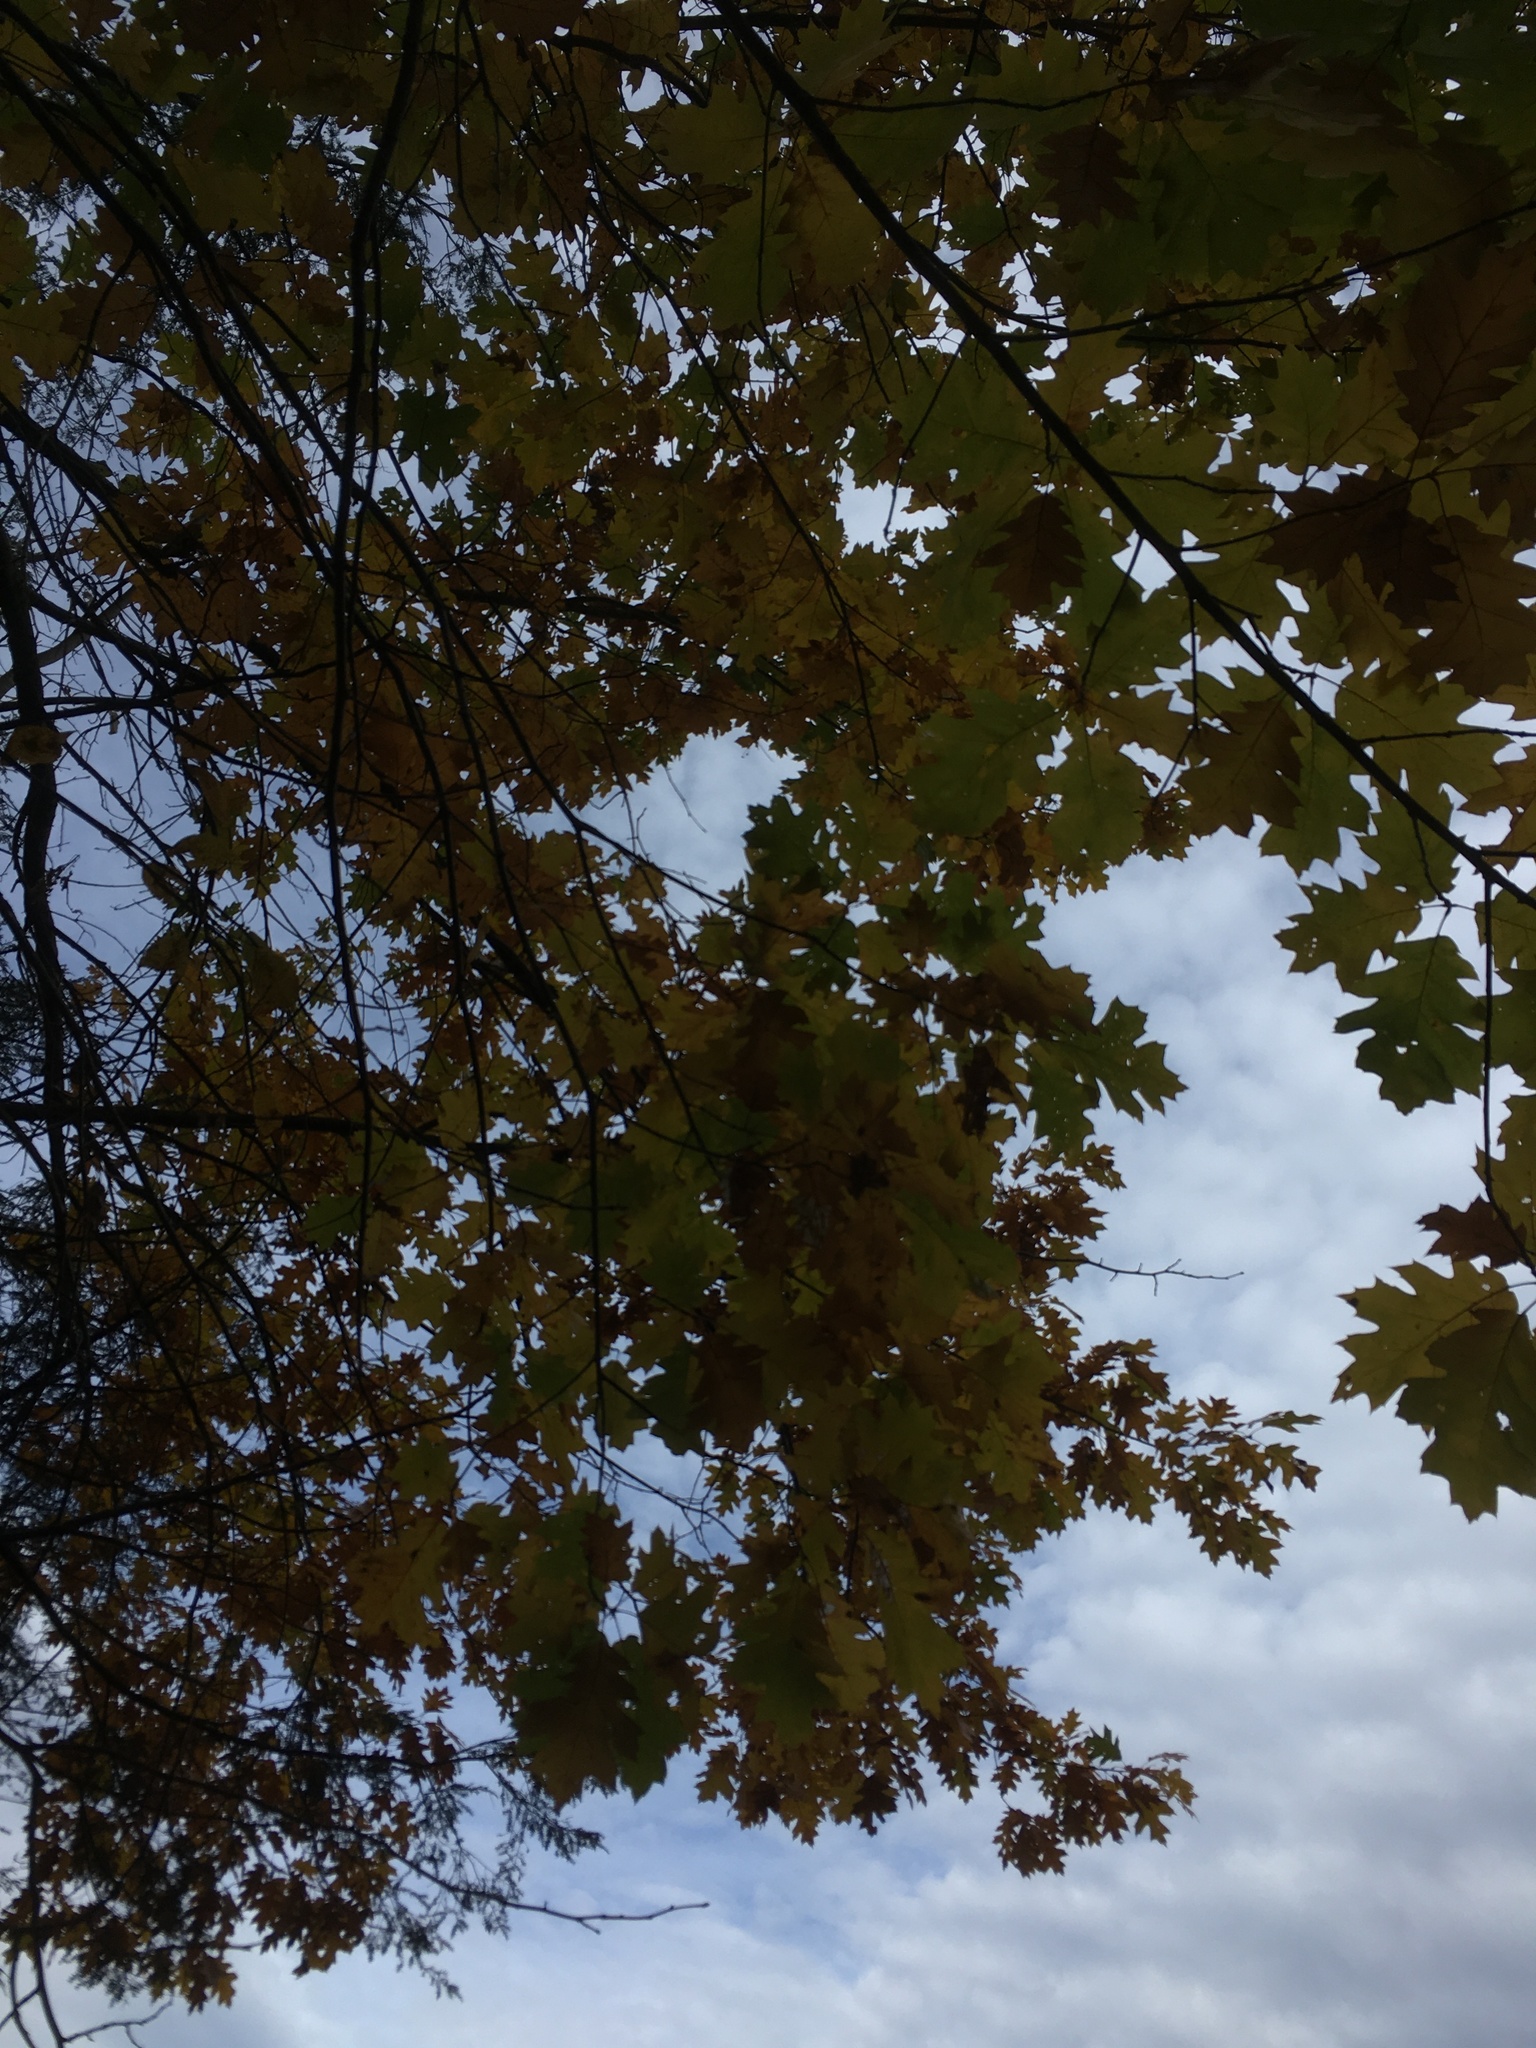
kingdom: Plantae
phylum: Tracheophyta
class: Magnoliopsida
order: Fagales
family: Fagaceae
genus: Quercus
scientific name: Quercus rubra
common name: Red oak
